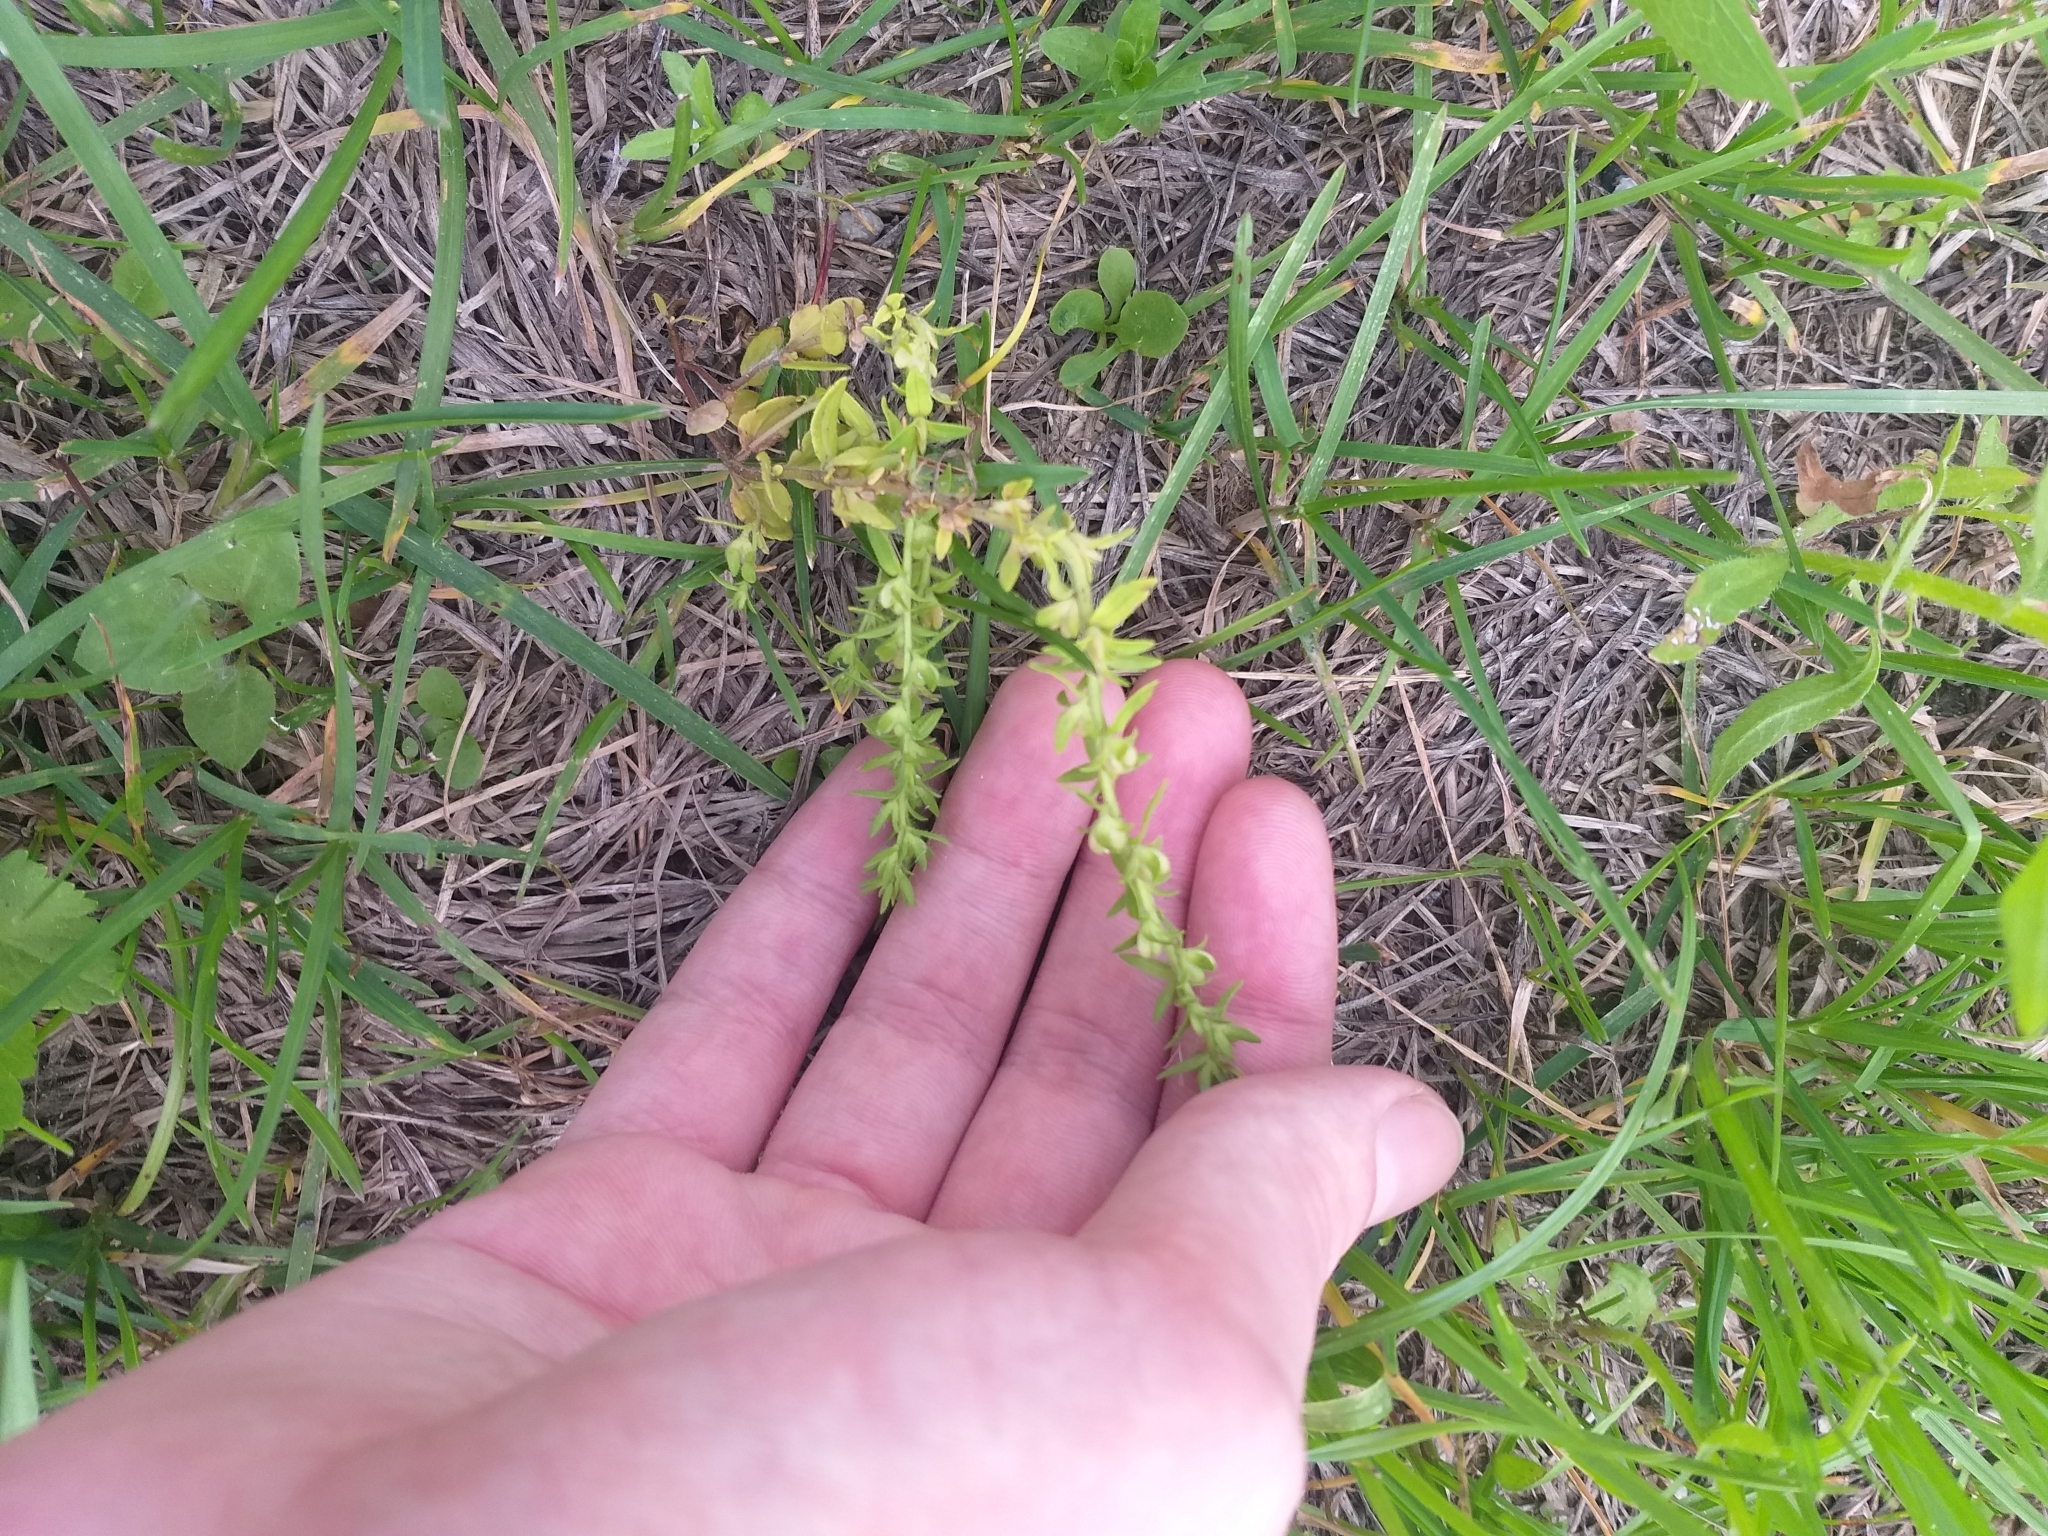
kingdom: Plantae
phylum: Tracheophyta
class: Magnoliopsida
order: Lamiales
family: Plantaginaceae
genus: Veronica
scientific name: Veronica arvensis
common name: Corn speedwell
